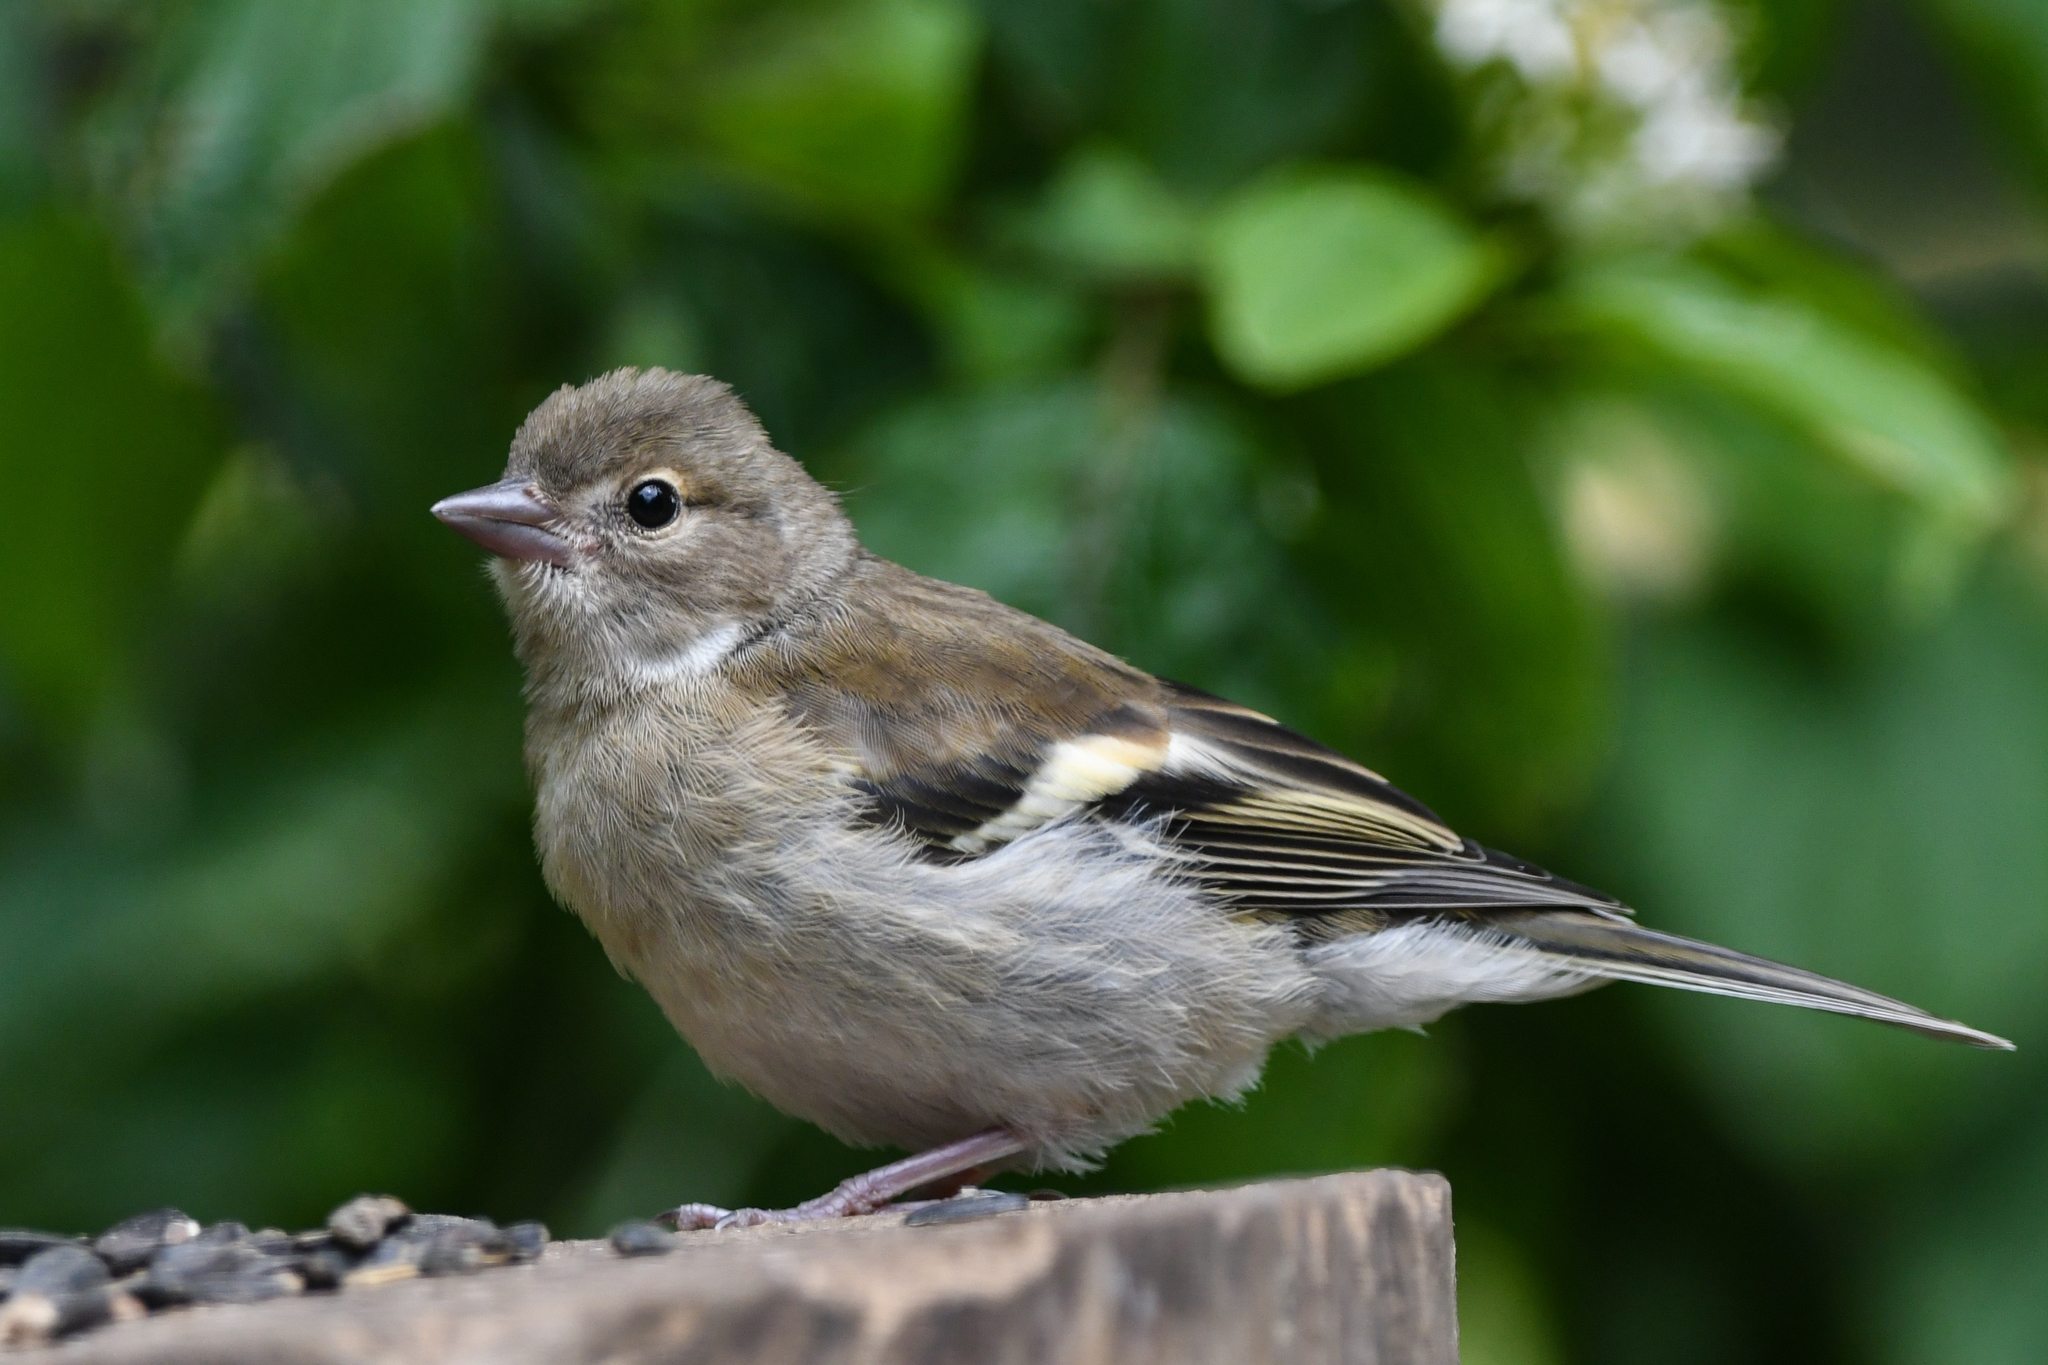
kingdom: Animalia
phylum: Chordata
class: Aves
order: Passeriformes
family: Fringillidae
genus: Fringilla
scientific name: Fringilla coelebs
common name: Common chaffinch
